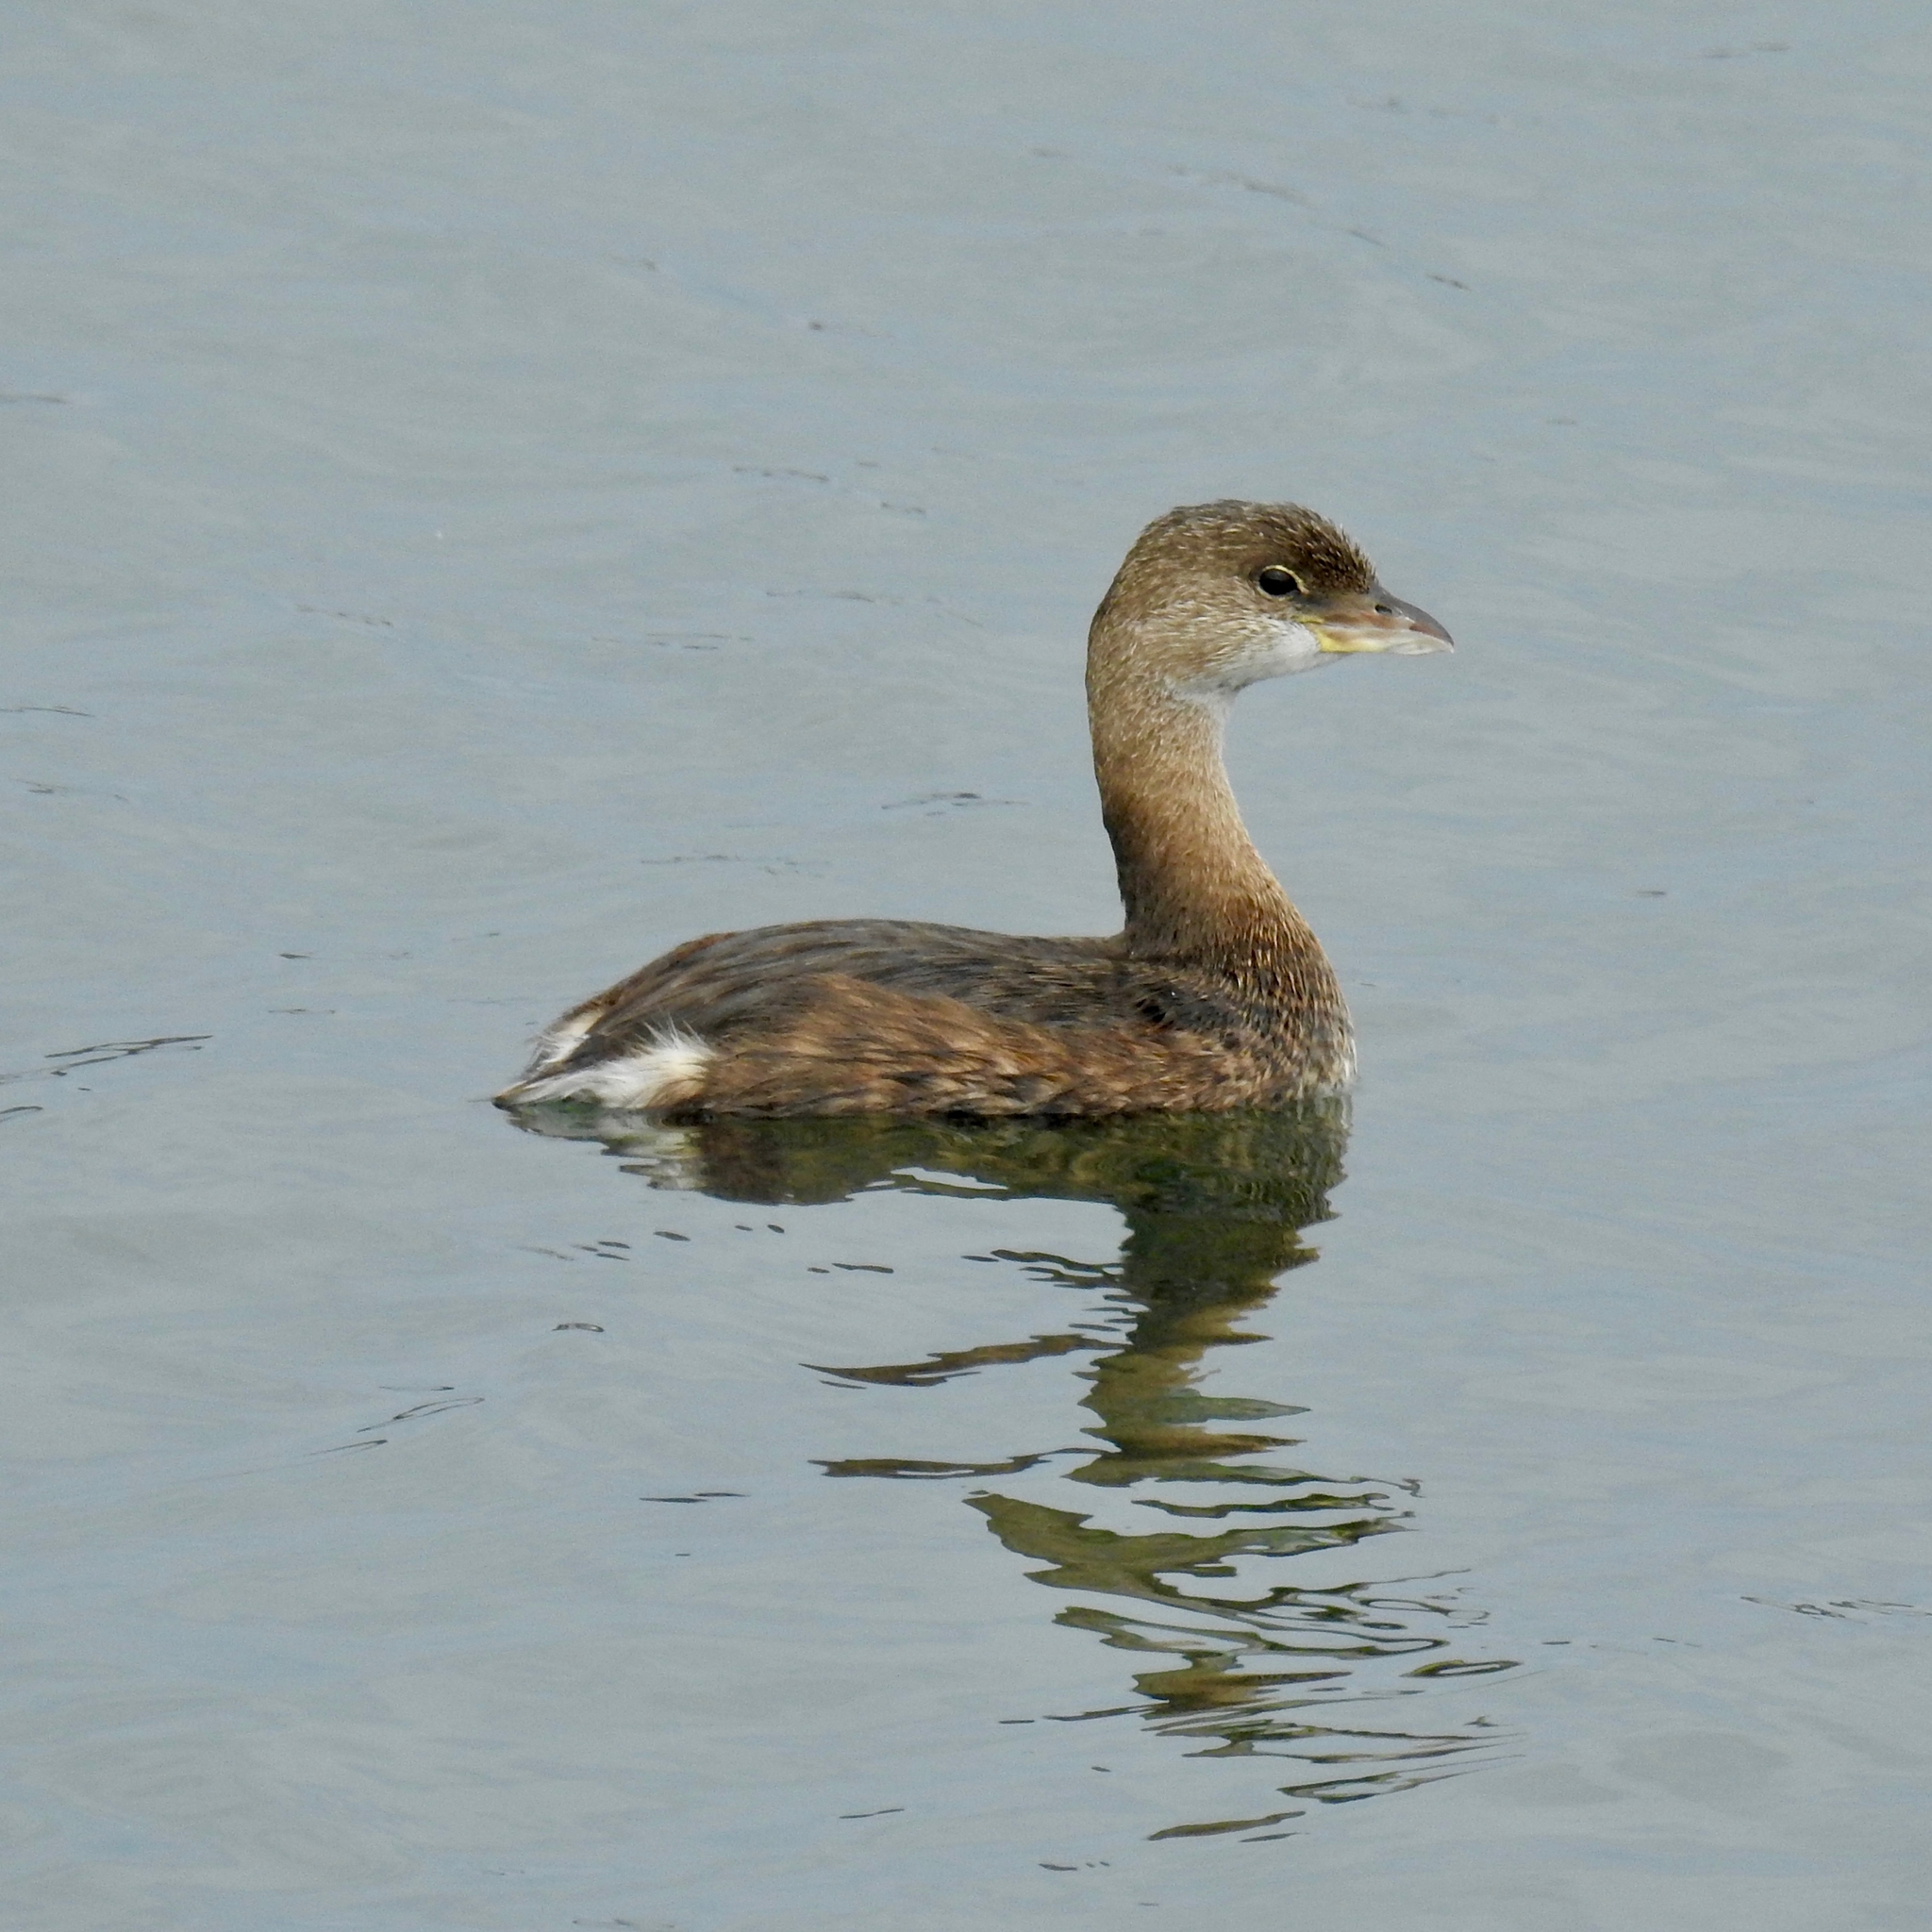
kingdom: Animalia
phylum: Chordata
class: Aves
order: Podicipediformes
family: Podicipedidae
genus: Podilymbus
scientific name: Podilymbus podiceps
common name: Pied-billed grebe
